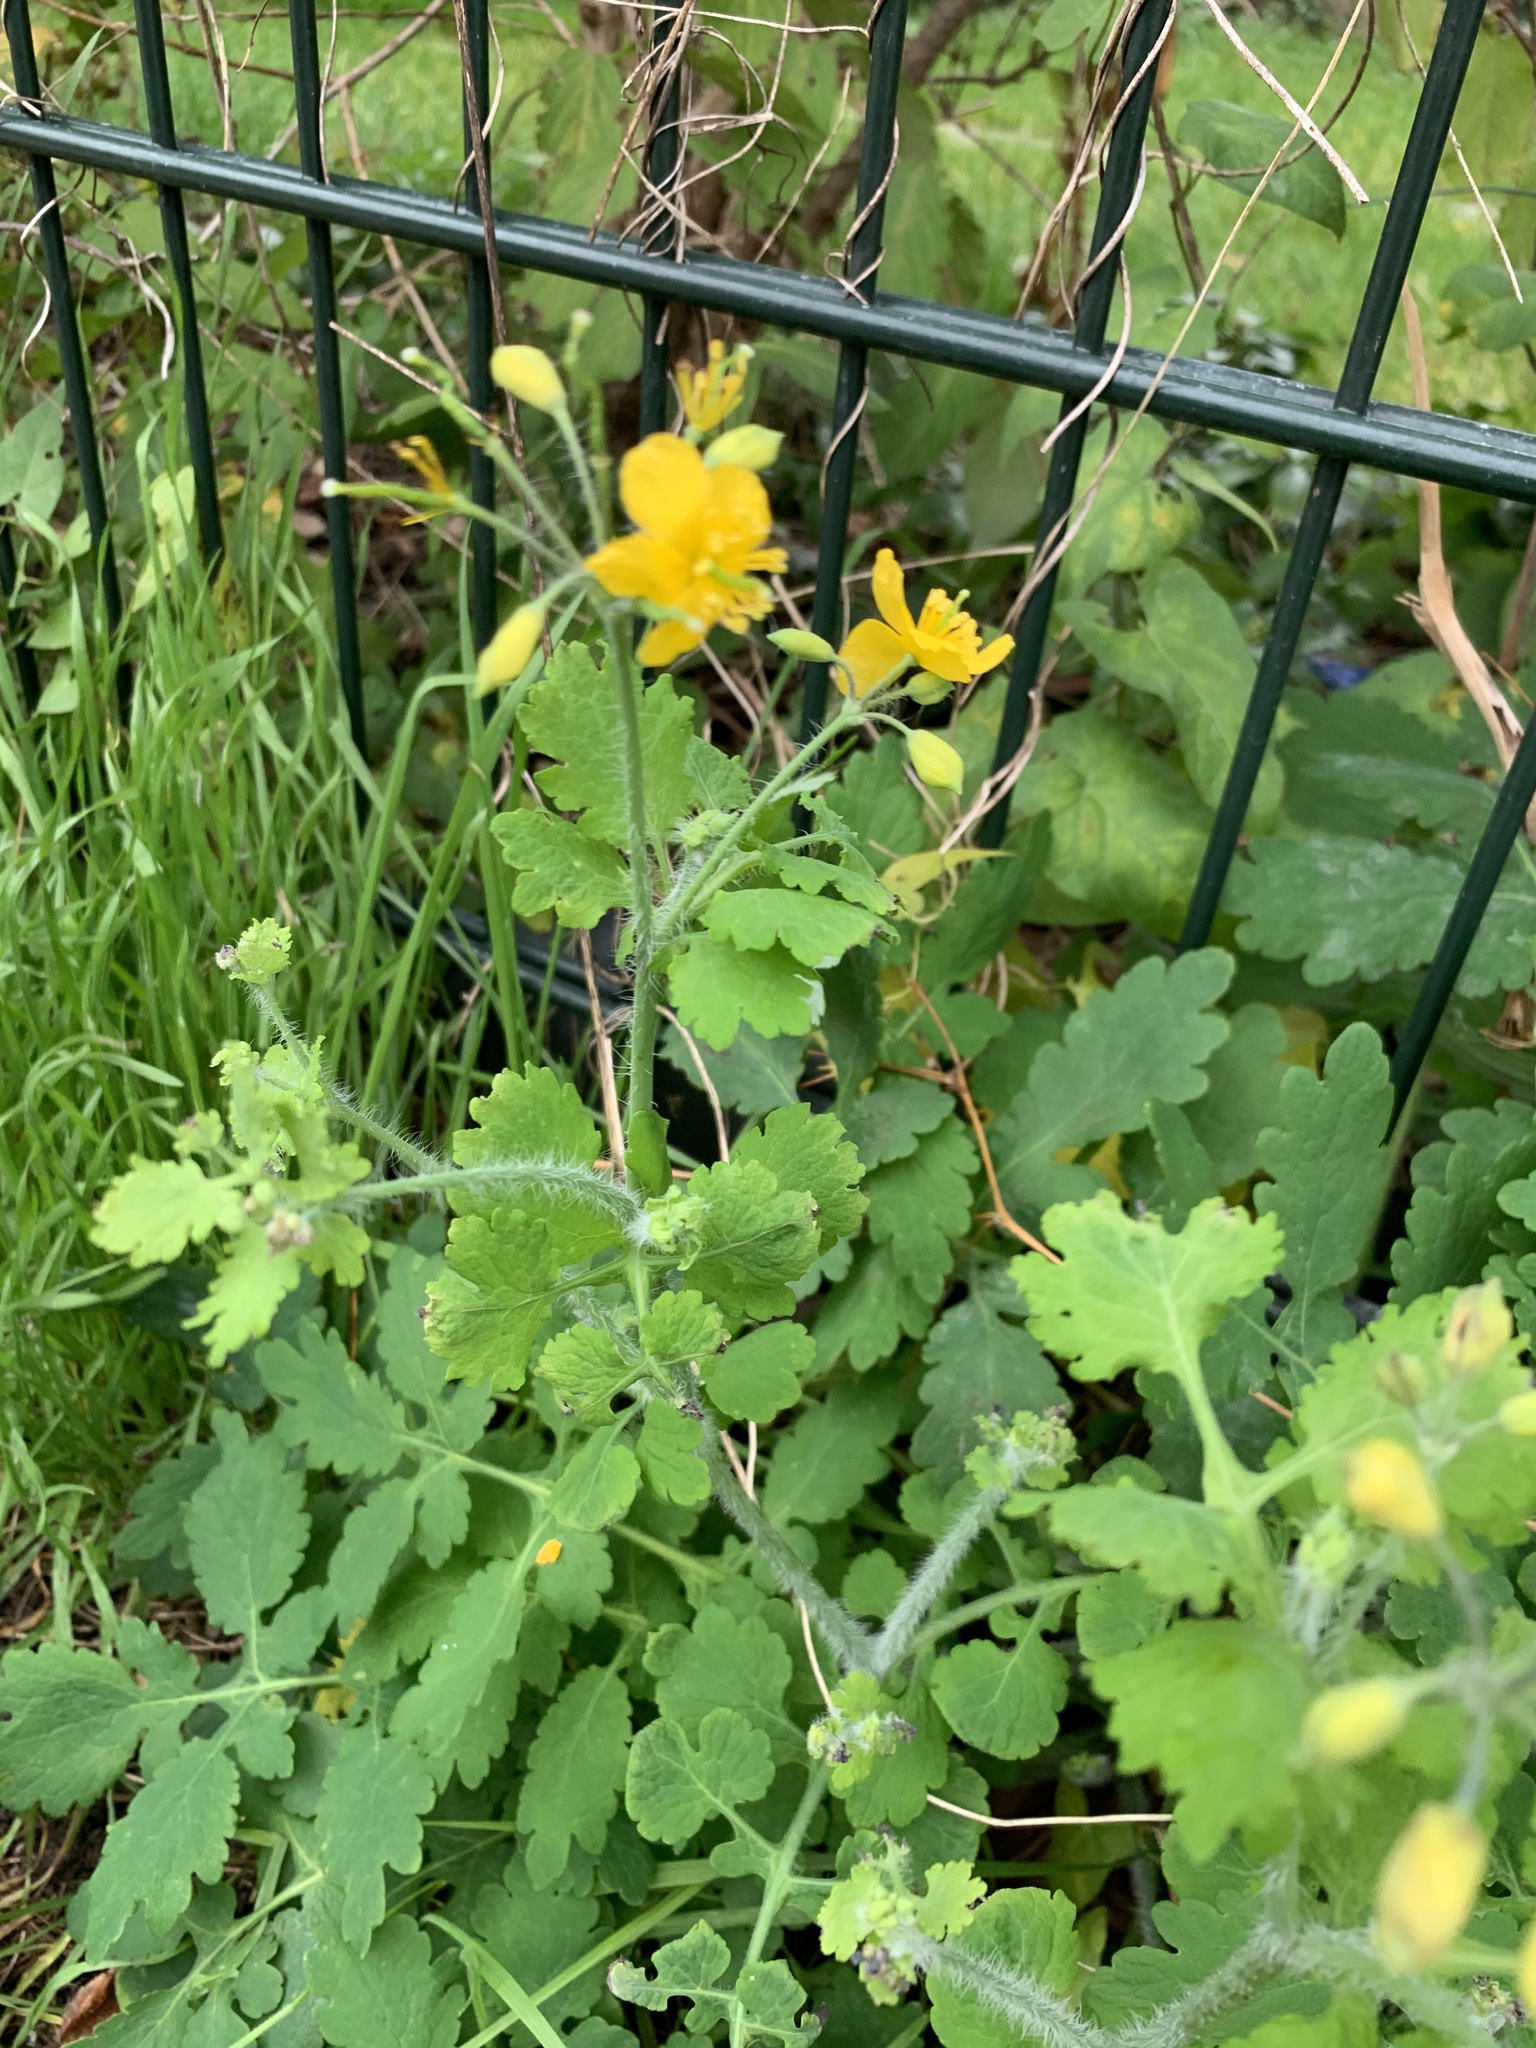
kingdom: Plantae
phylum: Tracheophyta
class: Magnoliopsida
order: Ranunculales
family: Papaveraceae
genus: Chelidonium
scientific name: Chelidonium majus
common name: Greater celandine
